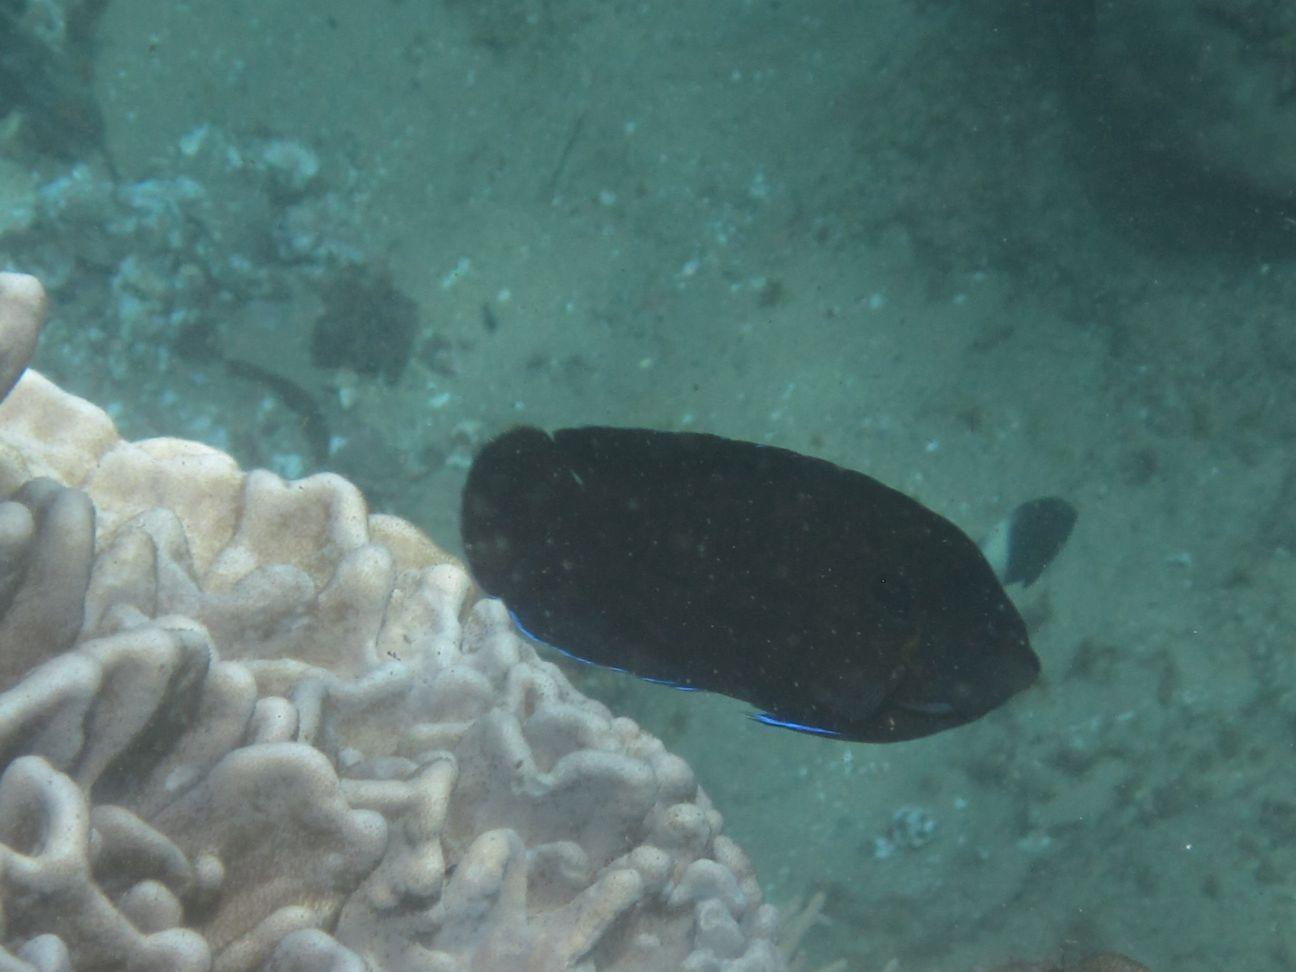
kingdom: Animalia
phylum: Chordata
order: Perciformes
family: Pomacanthidae
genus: Centropyge
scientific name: Centropyge multispinis
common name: Many-spined angelfish
